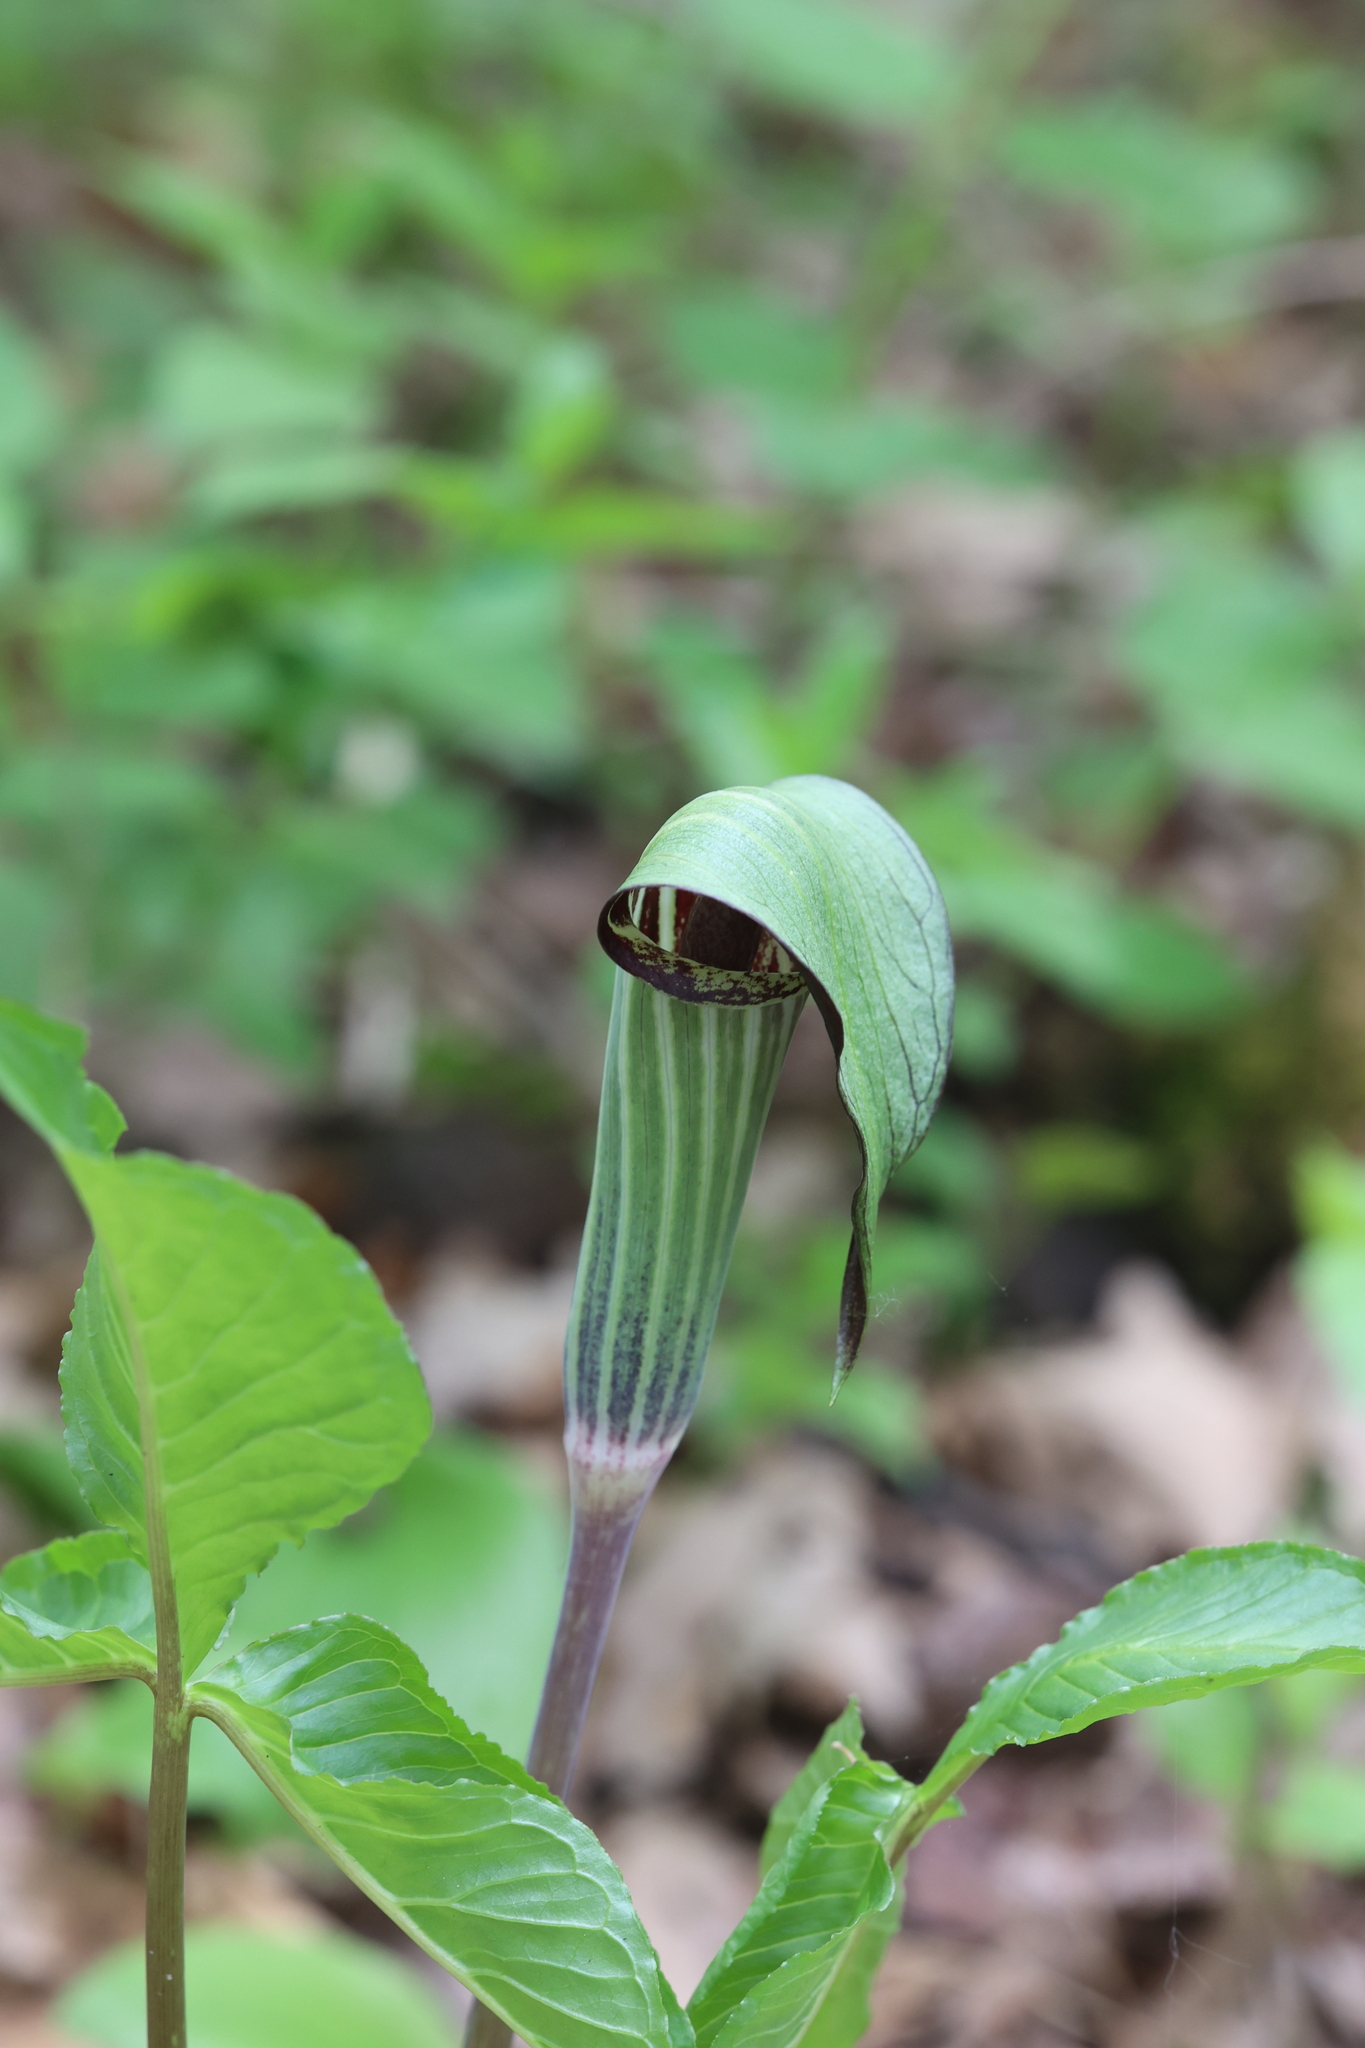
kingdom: Plantae
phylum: Tracheophyta
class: Liliopsida
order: Alismatales
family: Araceae
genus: Arisaema
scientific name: Arisaema triphyllum
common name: Jack-in-the-pulpit
